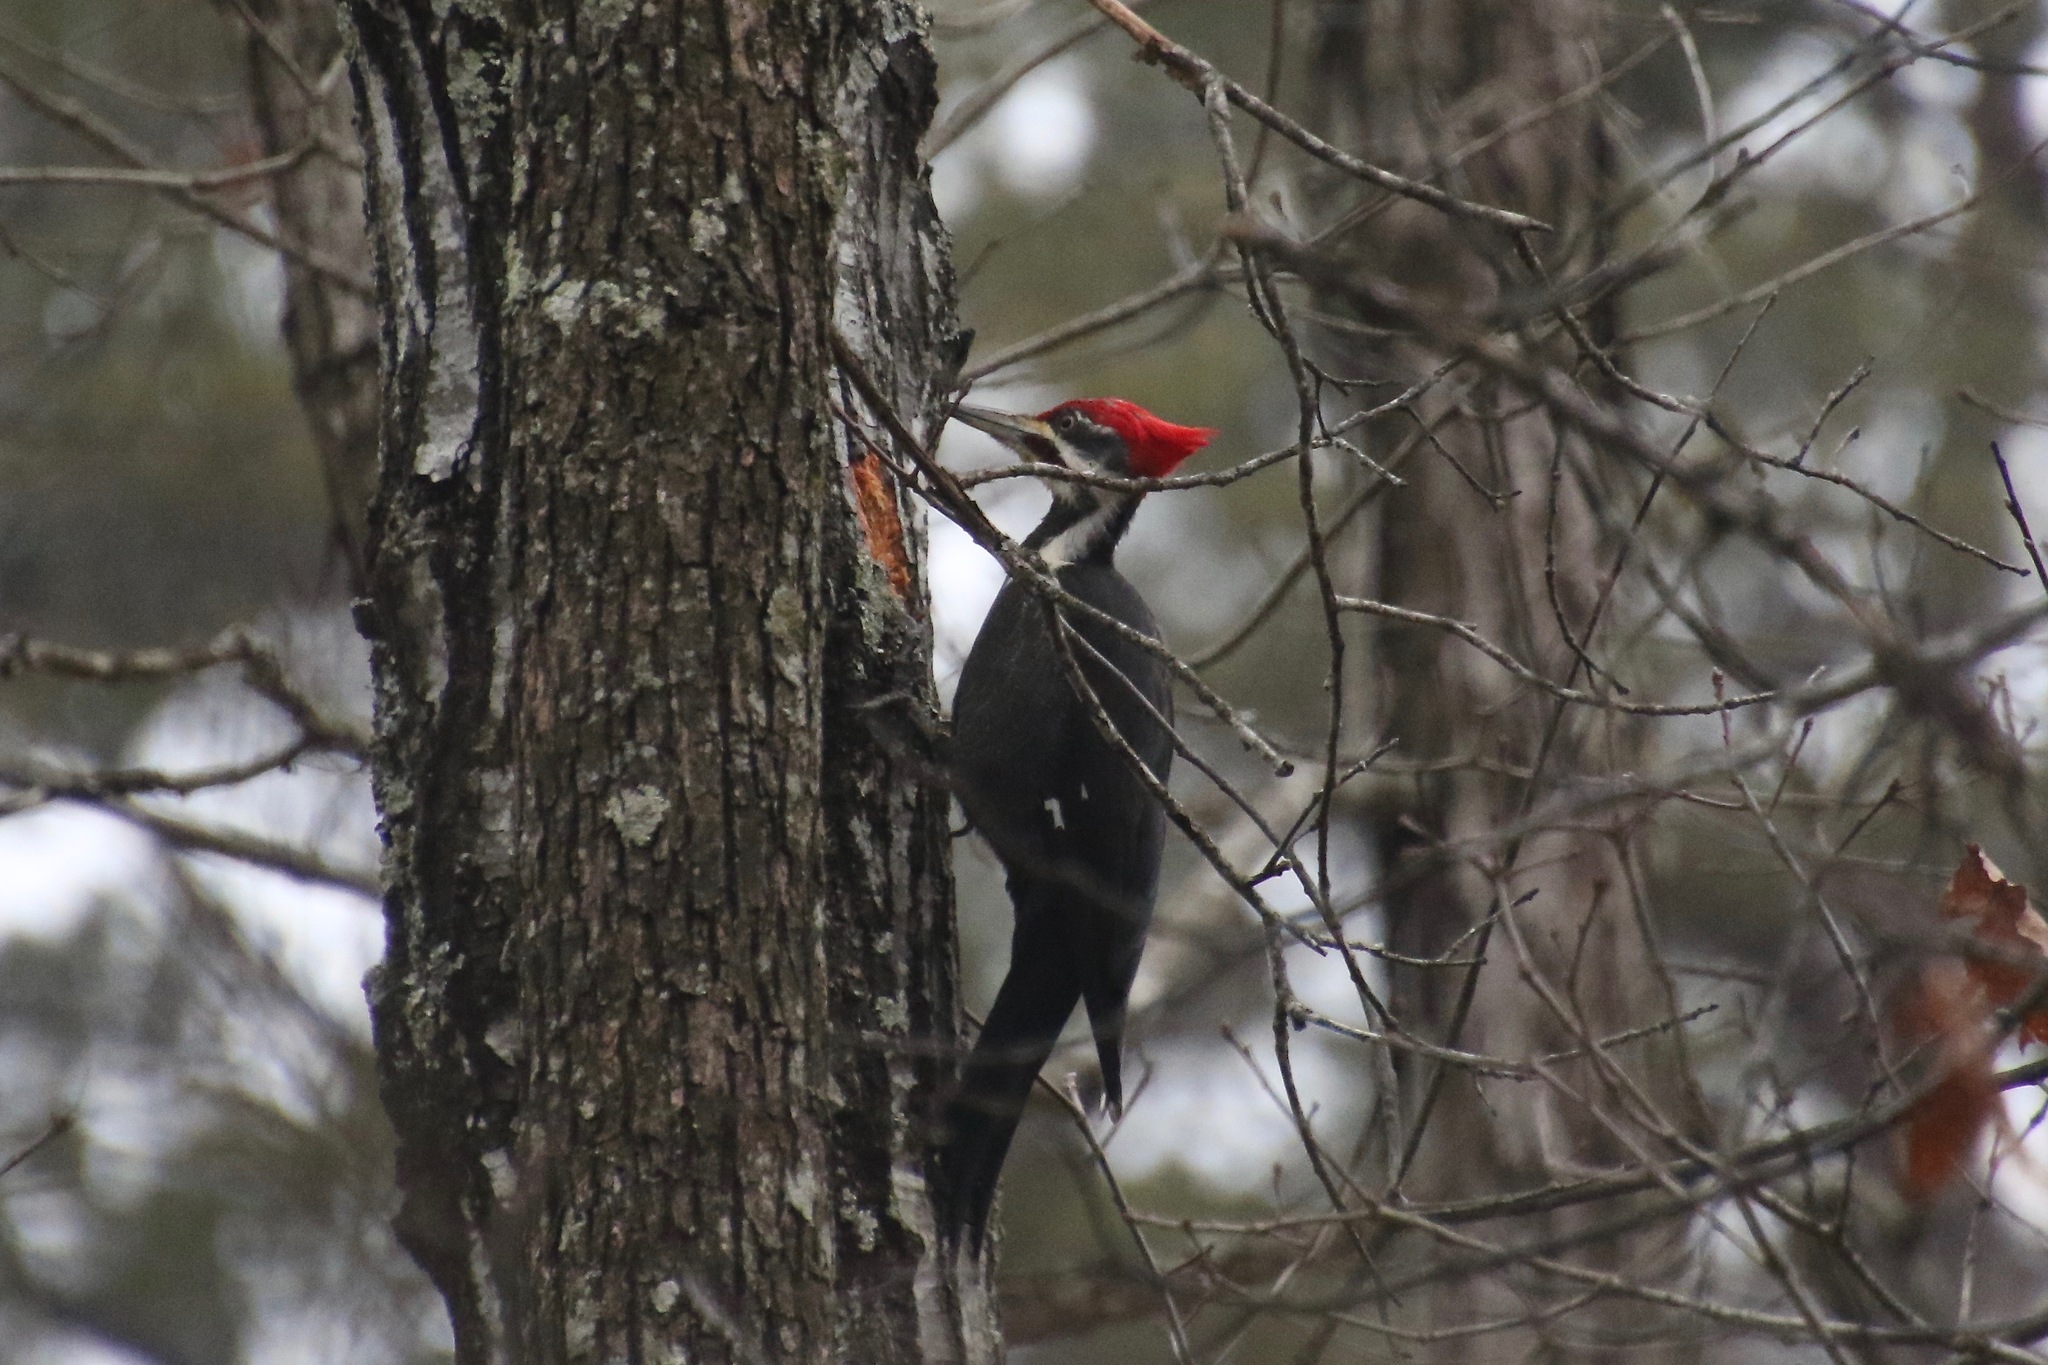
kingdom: Animalia
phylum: Chordata
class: Aves
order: Piciformes
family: Picidae
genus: Dryocopus
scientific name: Dryocopus pileatus
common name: Pileated woodpecker
